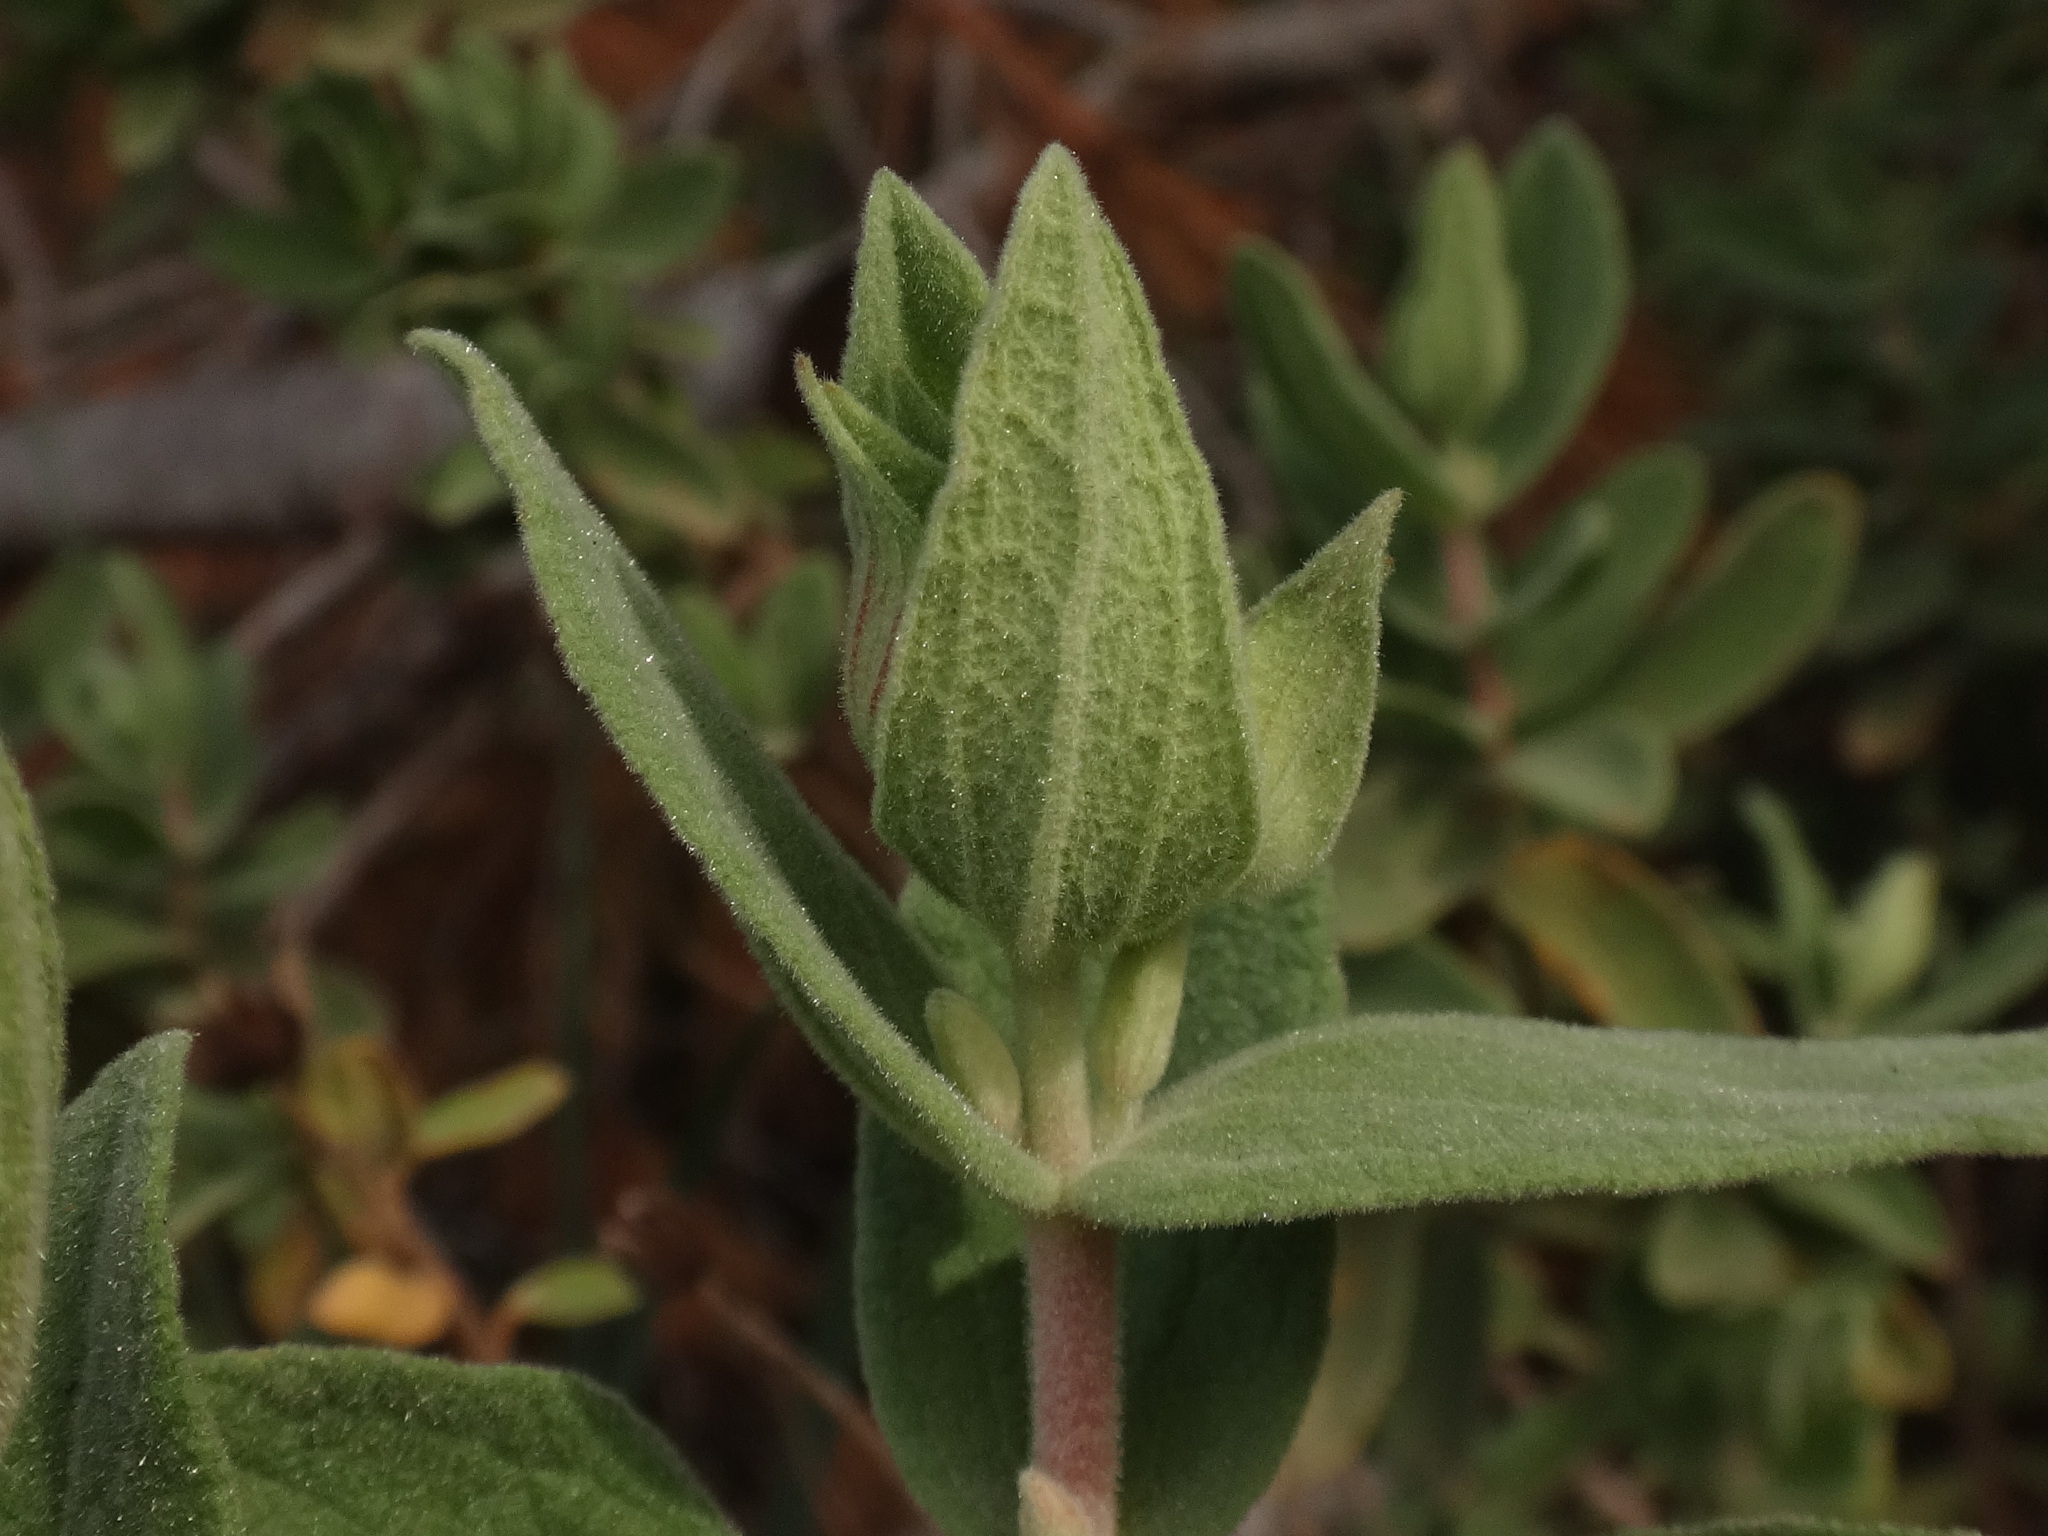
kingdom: Plantae
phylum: Tracheophyta
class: Magnoliopsida
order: Malvales
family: Cistaceae
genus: Cistus
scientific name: Cistus albidus
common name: White-leaf rock-rose
